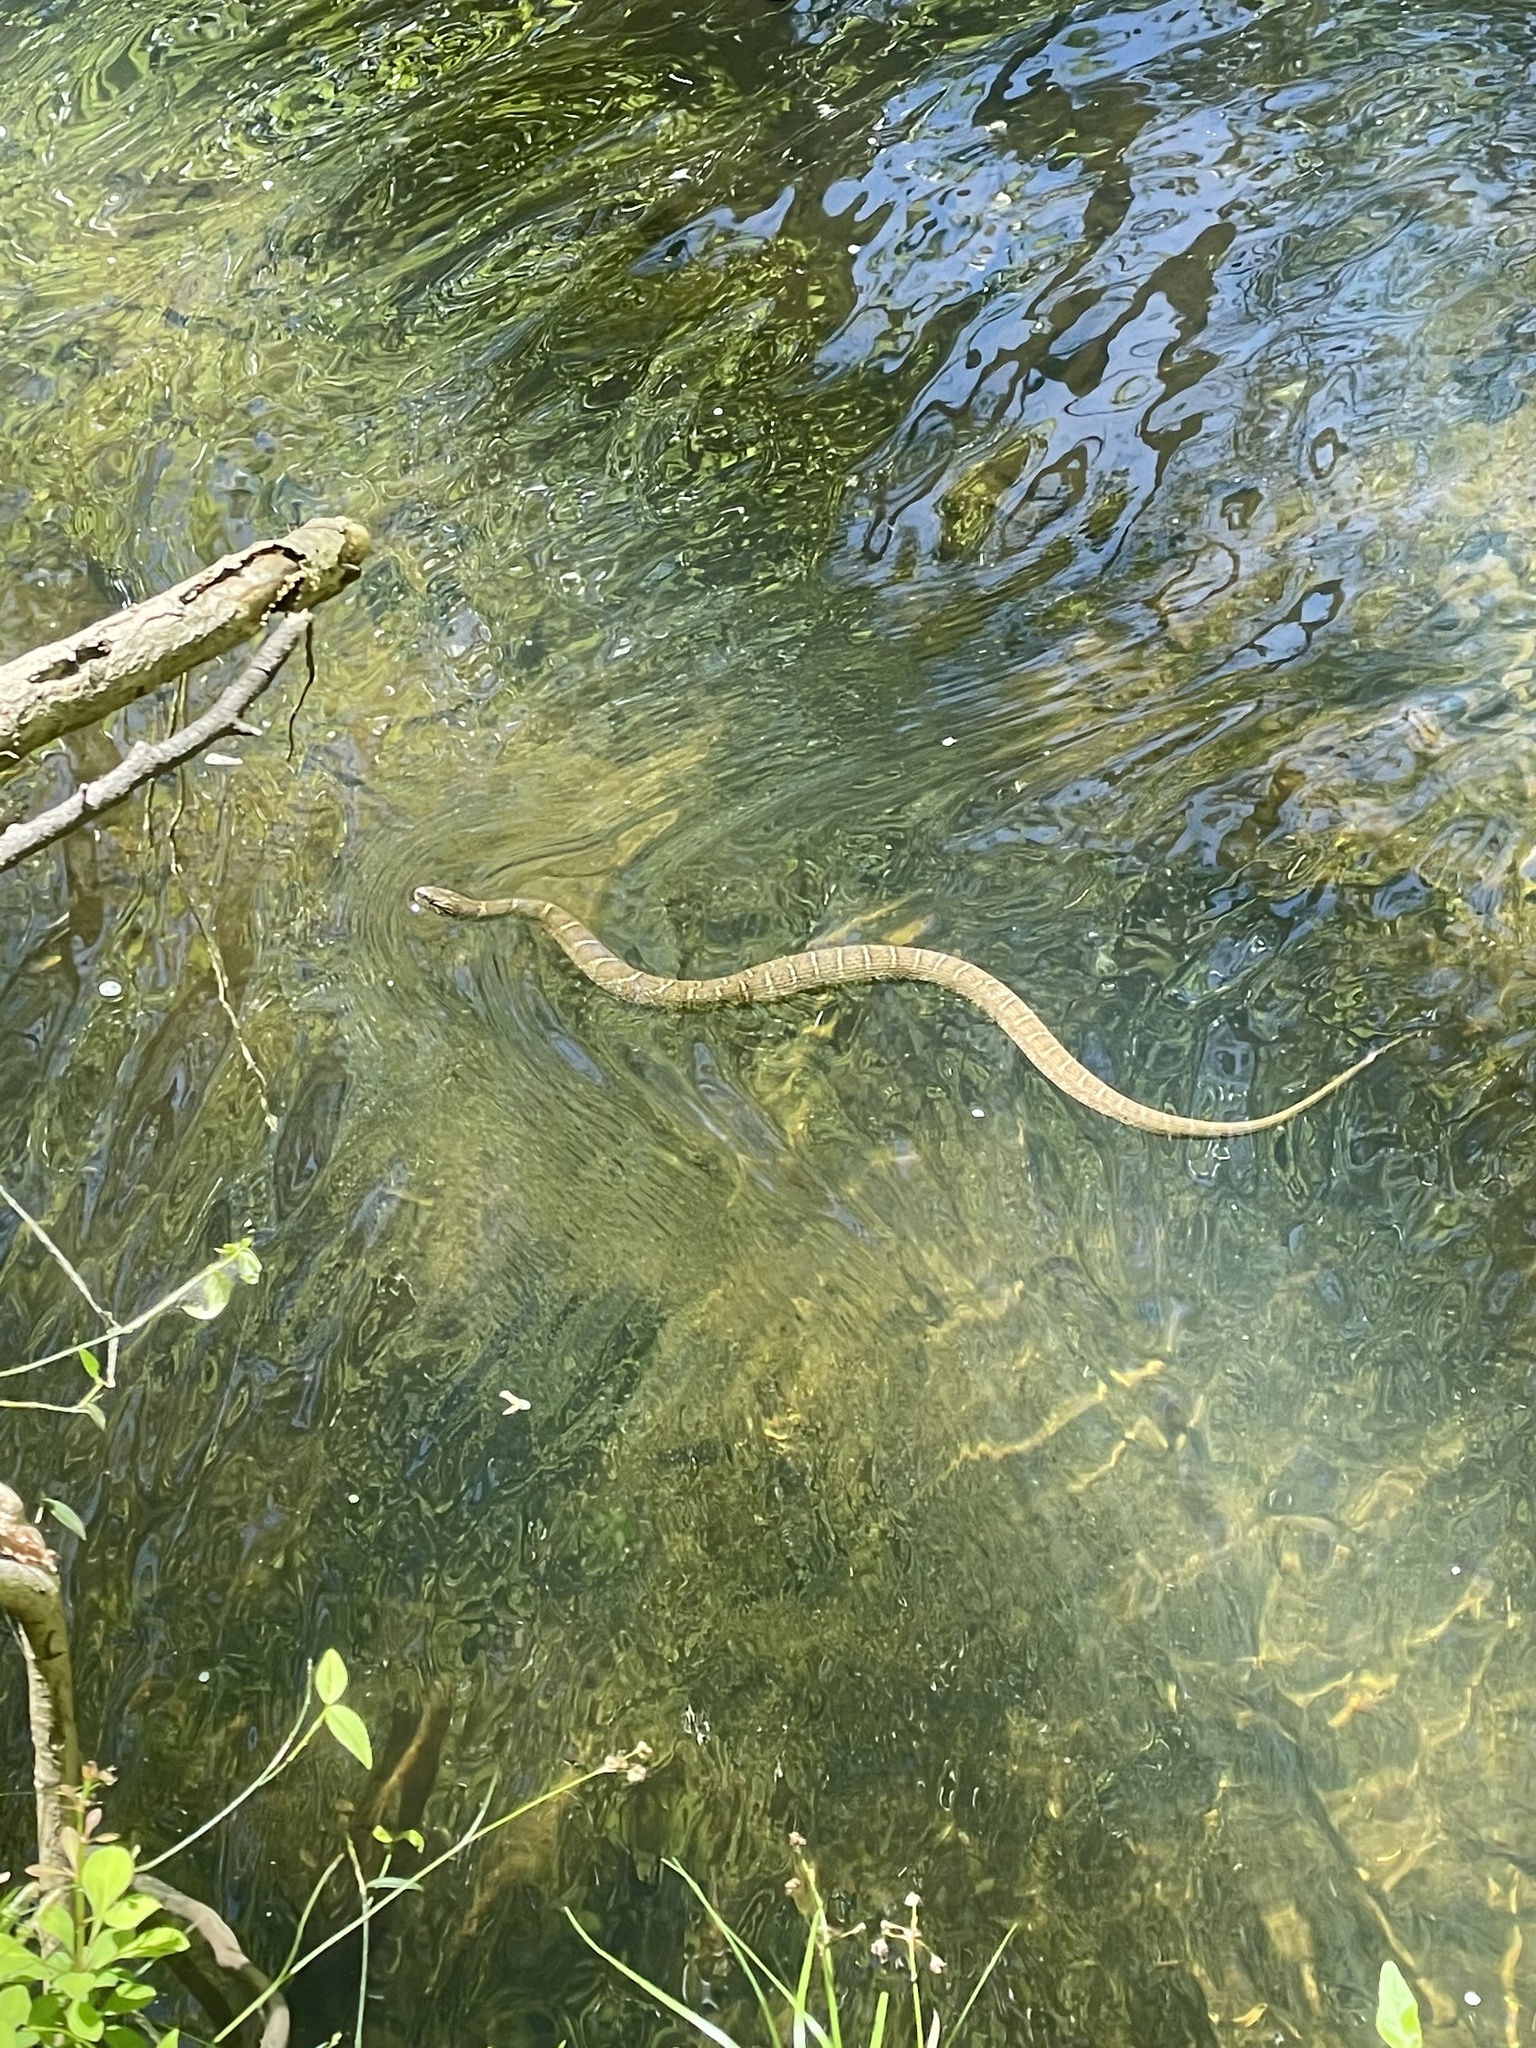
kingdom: Animalia
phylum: Chordata
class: Squamata
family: Colubridae
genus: Nerodia
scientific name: Nerodia sipedon
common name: Northern water snake
